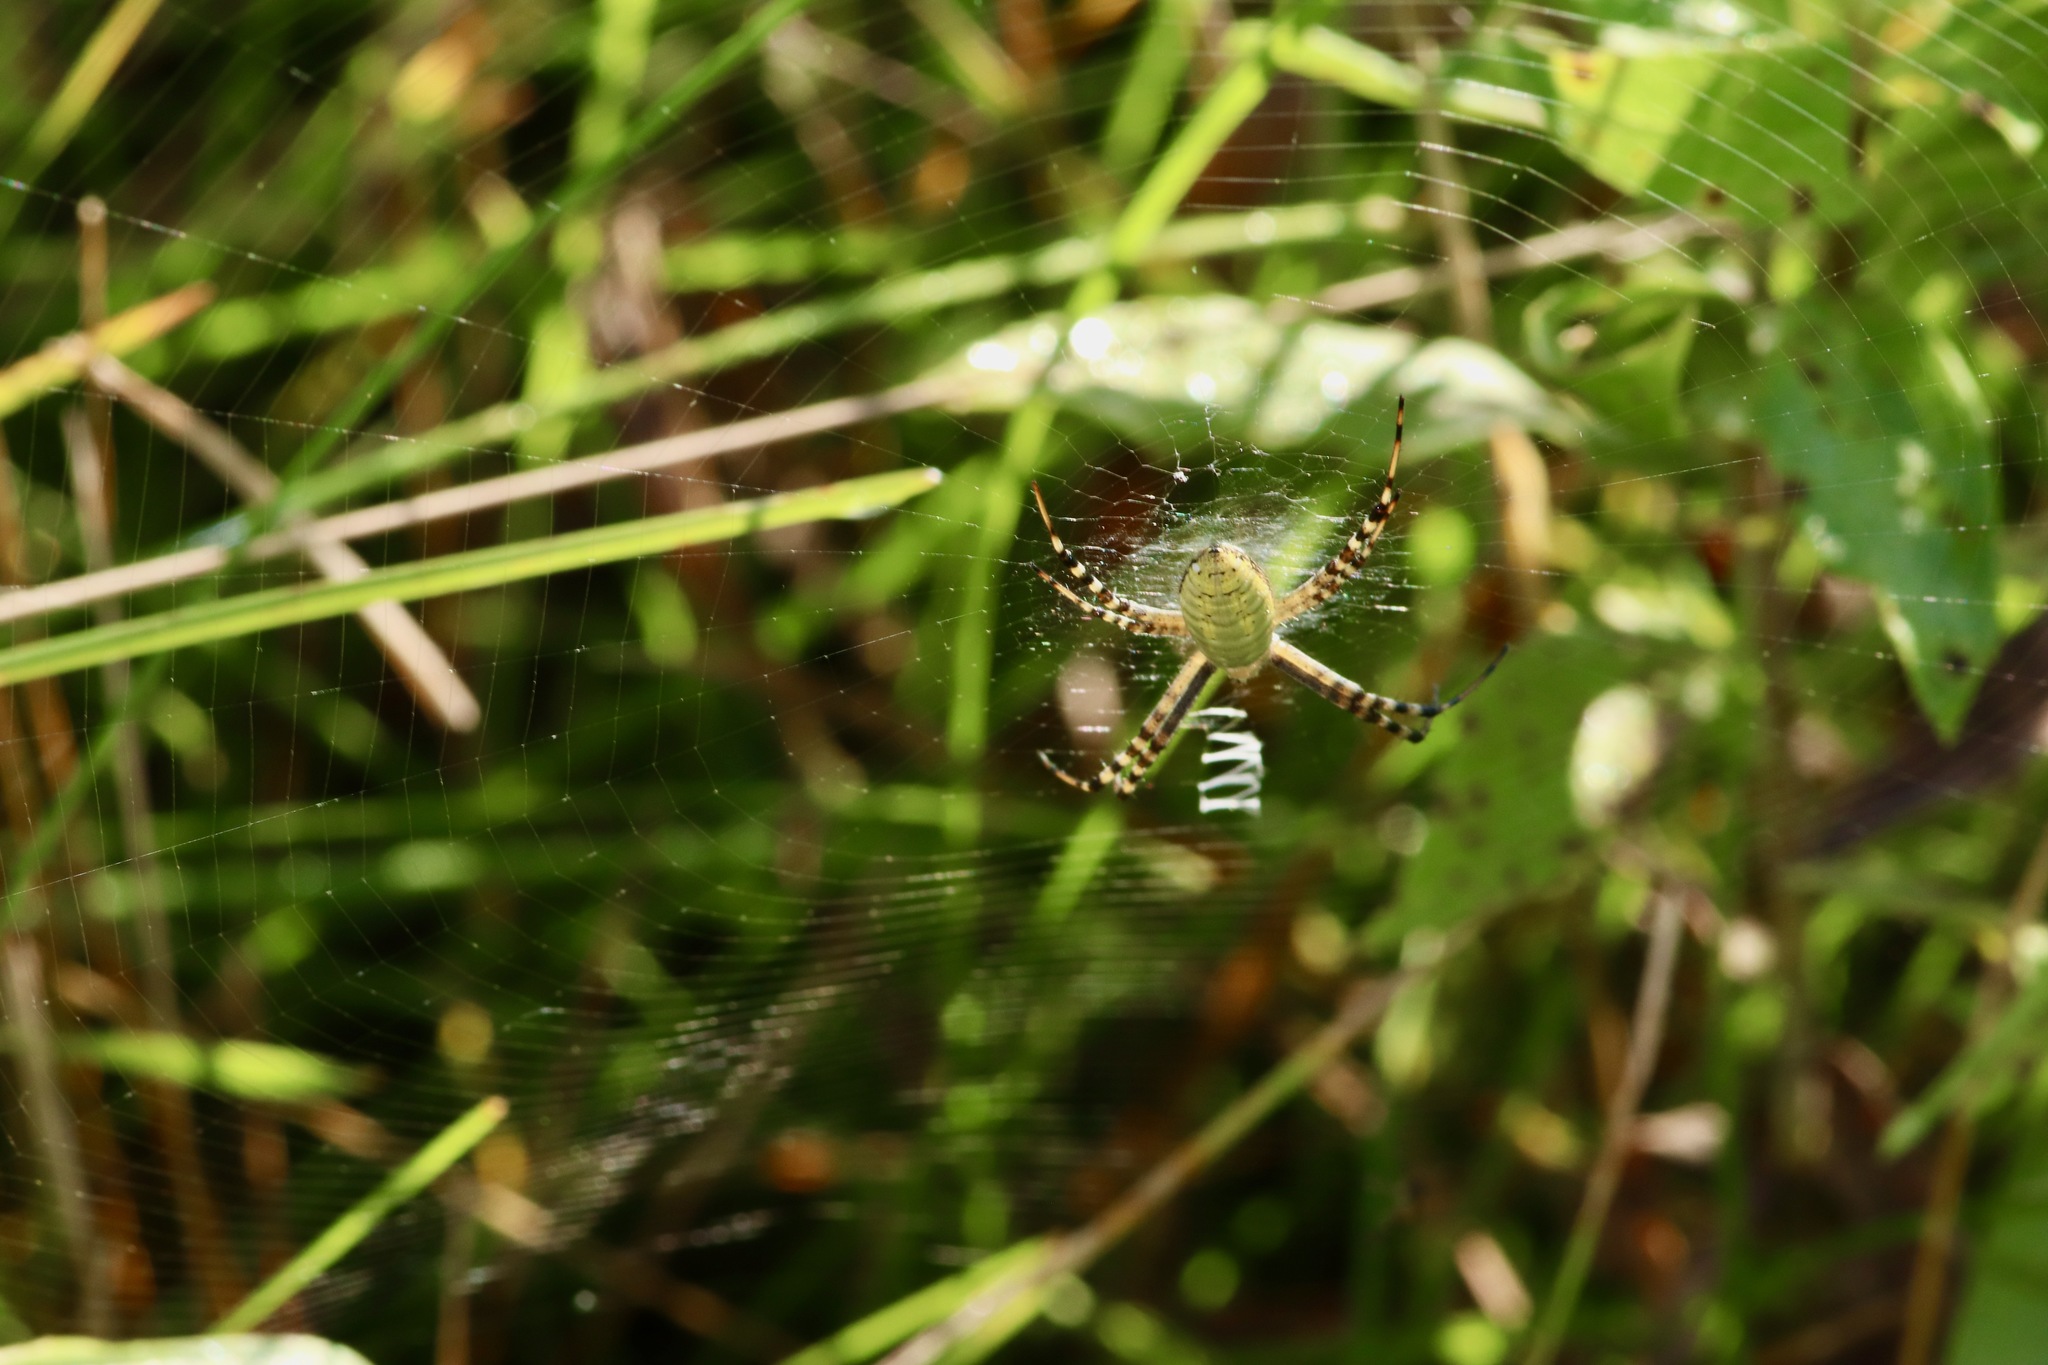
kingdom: Animalia
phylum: Arthropoda
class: Arachnida
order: Araneae
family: Araneidae
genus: Argiope
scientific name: Argiope trifasciata
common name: Banded garden spider
